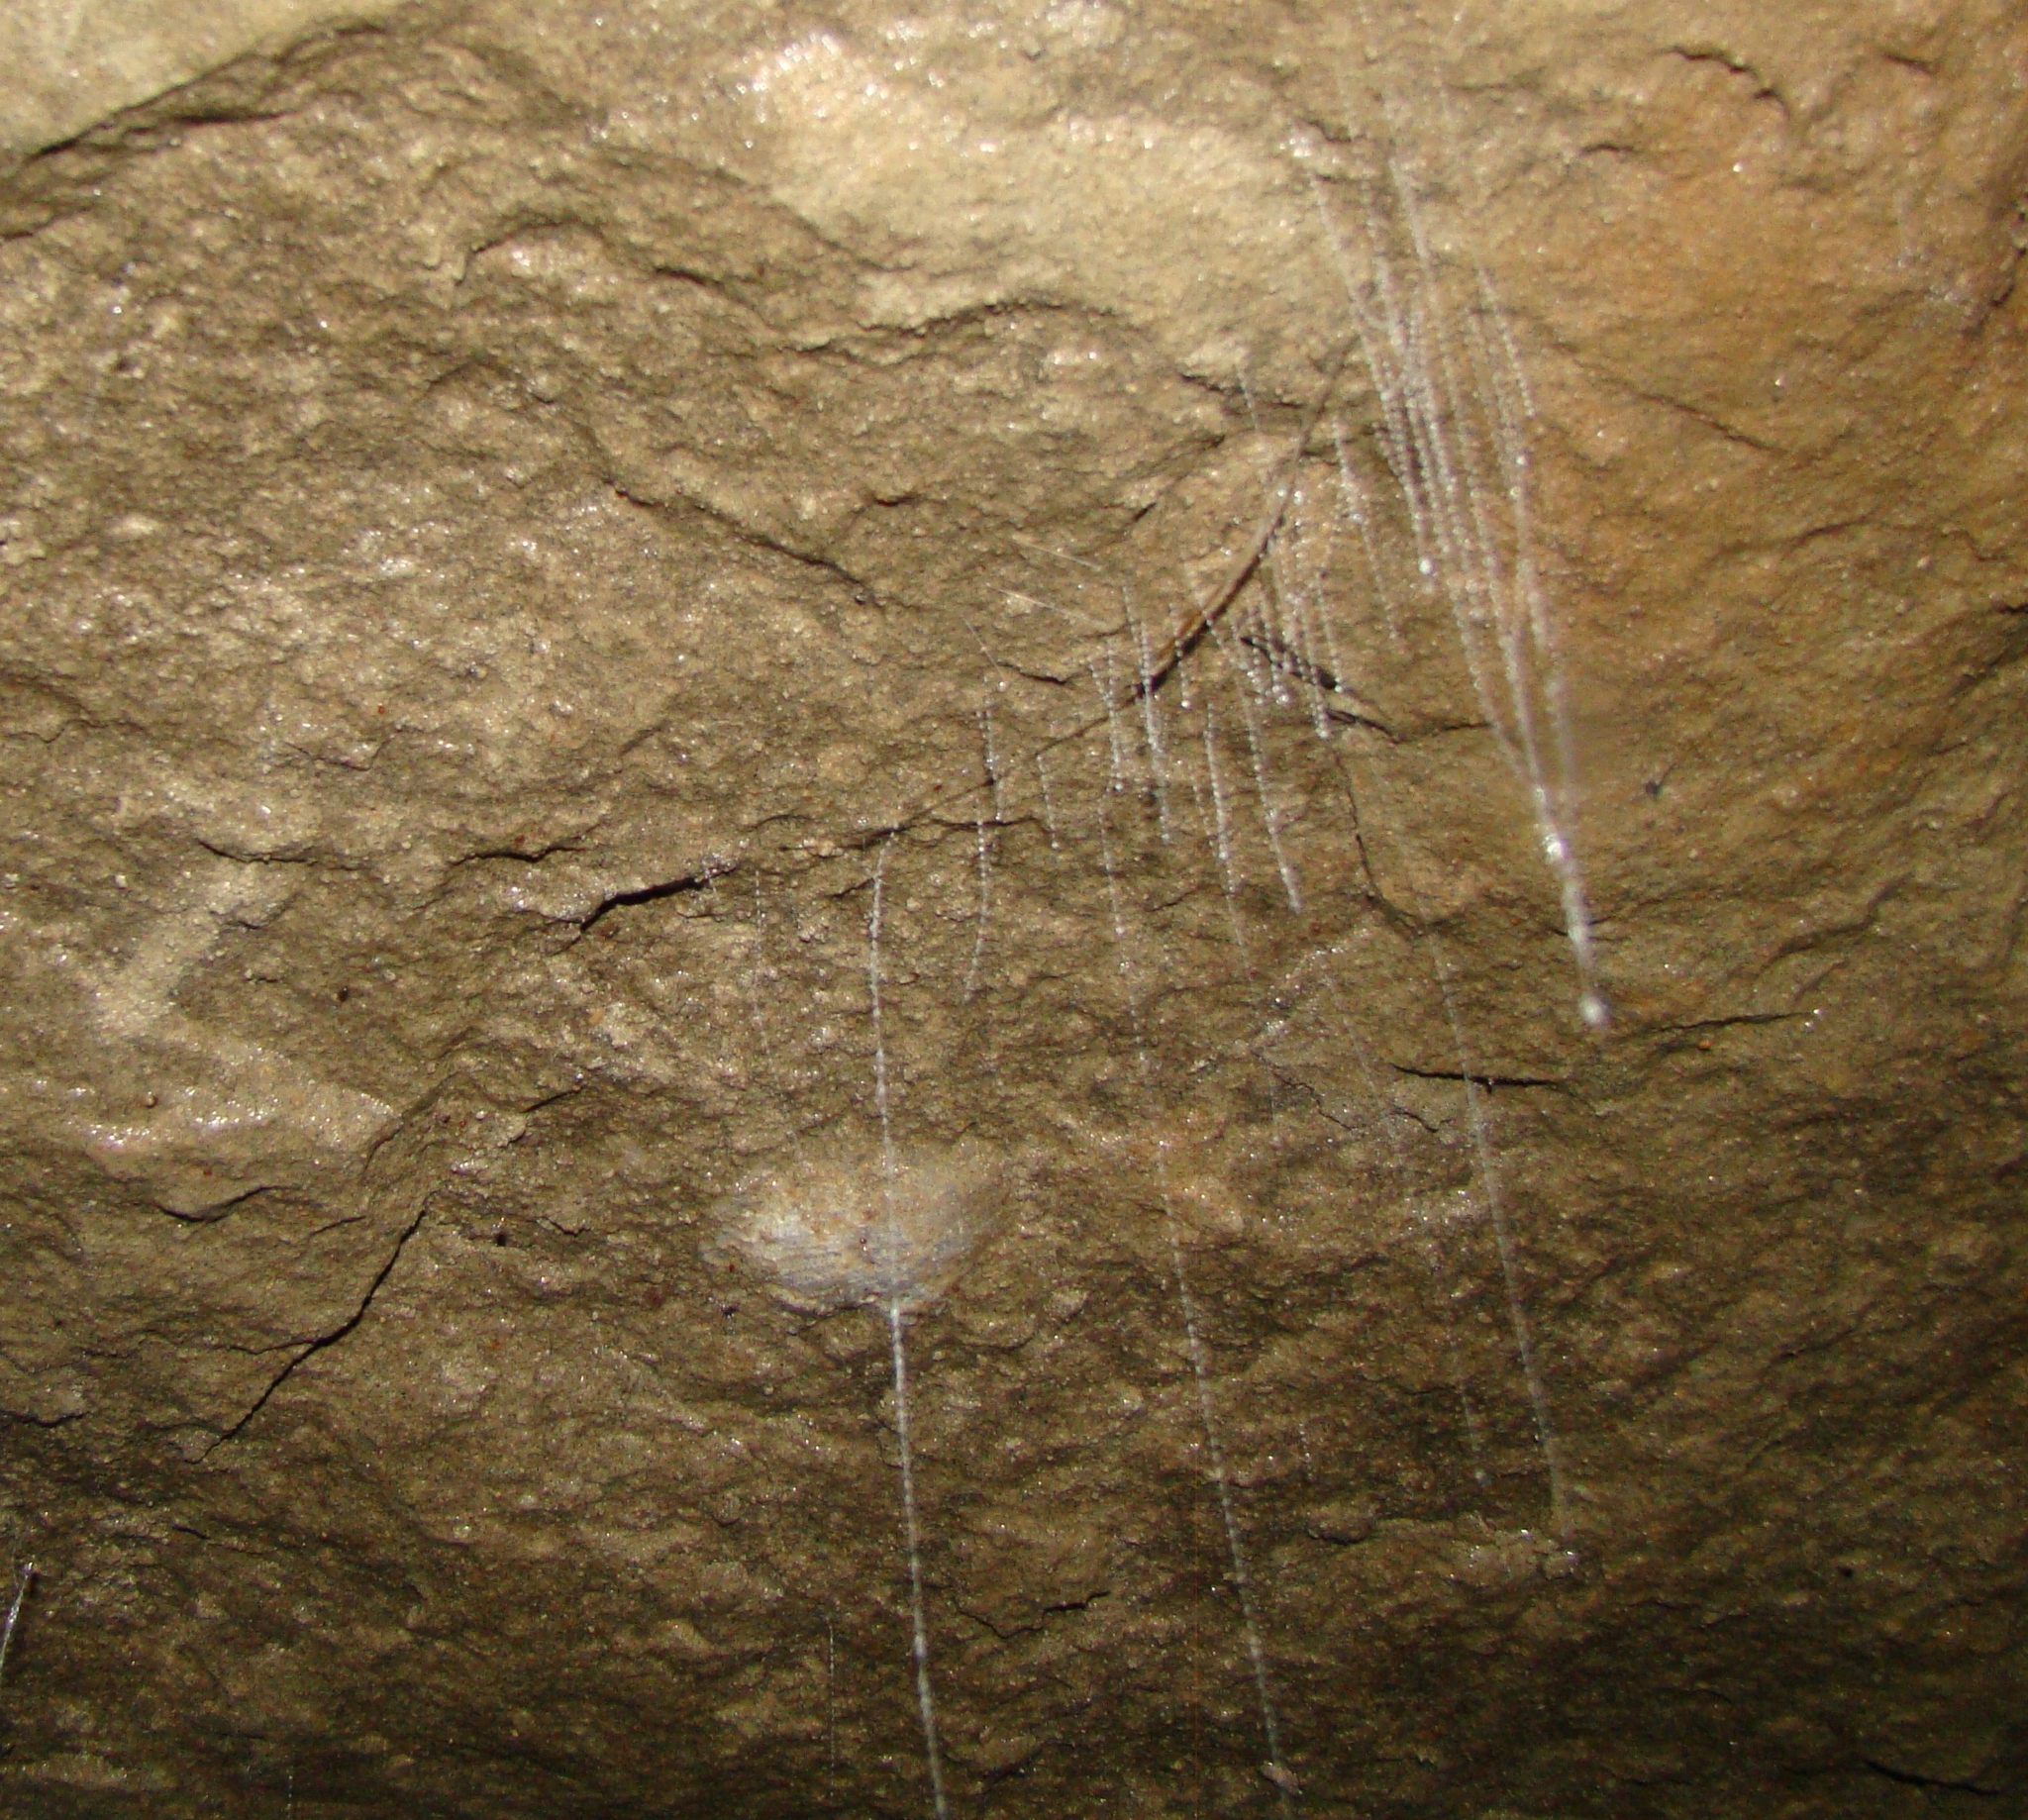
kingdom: Animalia
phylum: Arthropoda
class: Insecta
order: Diptera
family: Keroplatidae
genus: Arachnocampa
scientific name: Arachnocampa luminosa
